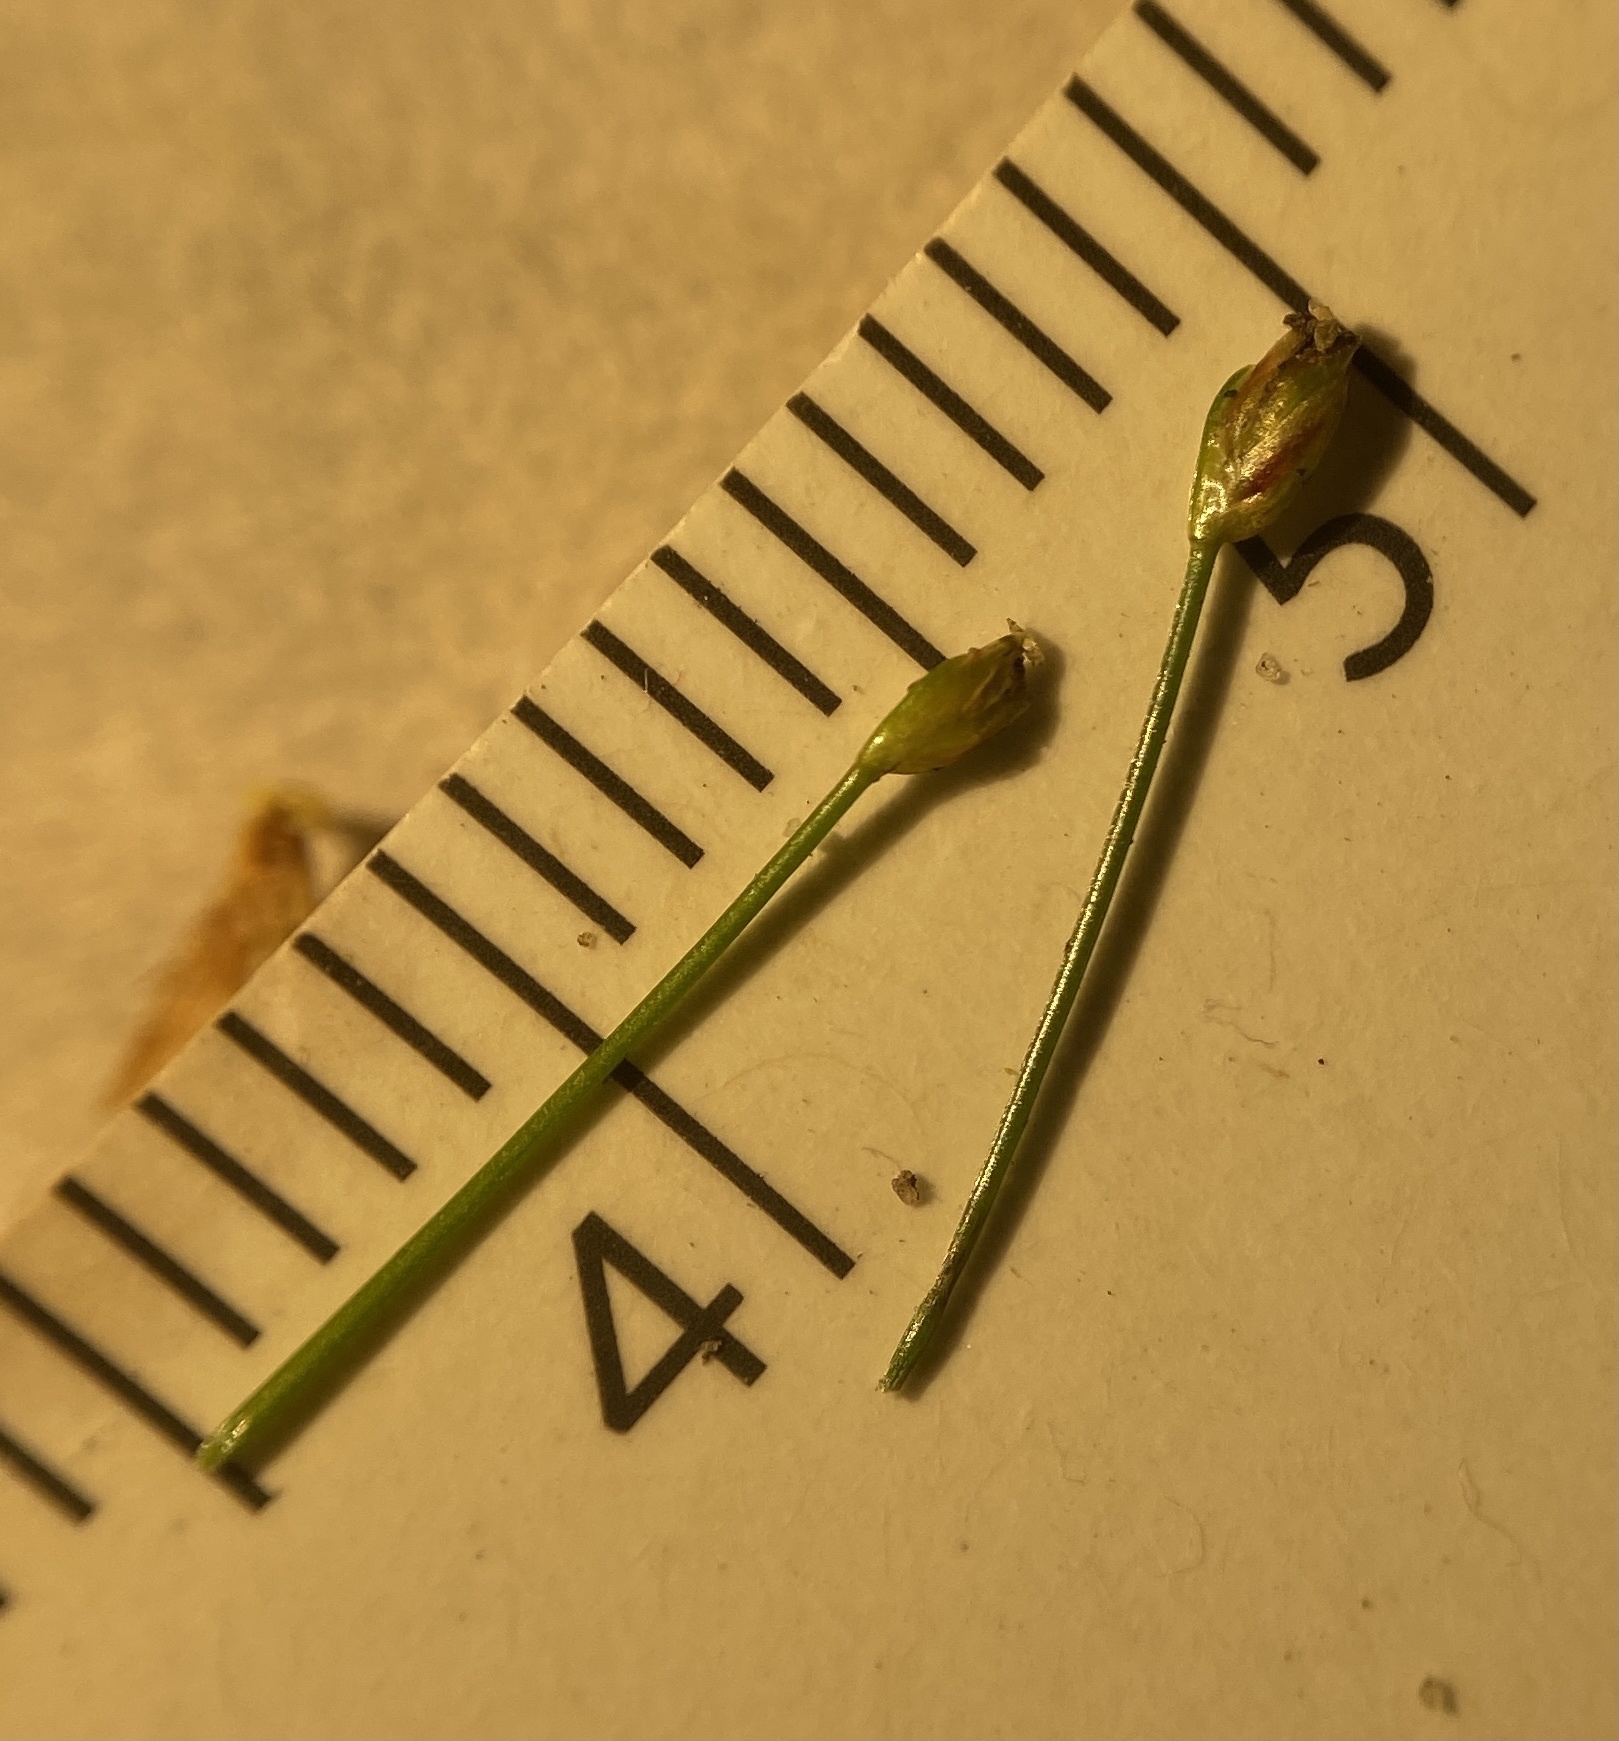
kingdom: Plantae
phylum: Tracheophyta
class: Liliopsida
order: Poales
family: Cyperaceae
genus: Eleocharis
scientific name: Eleocharis parvula
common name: Dwarf spike-rush
